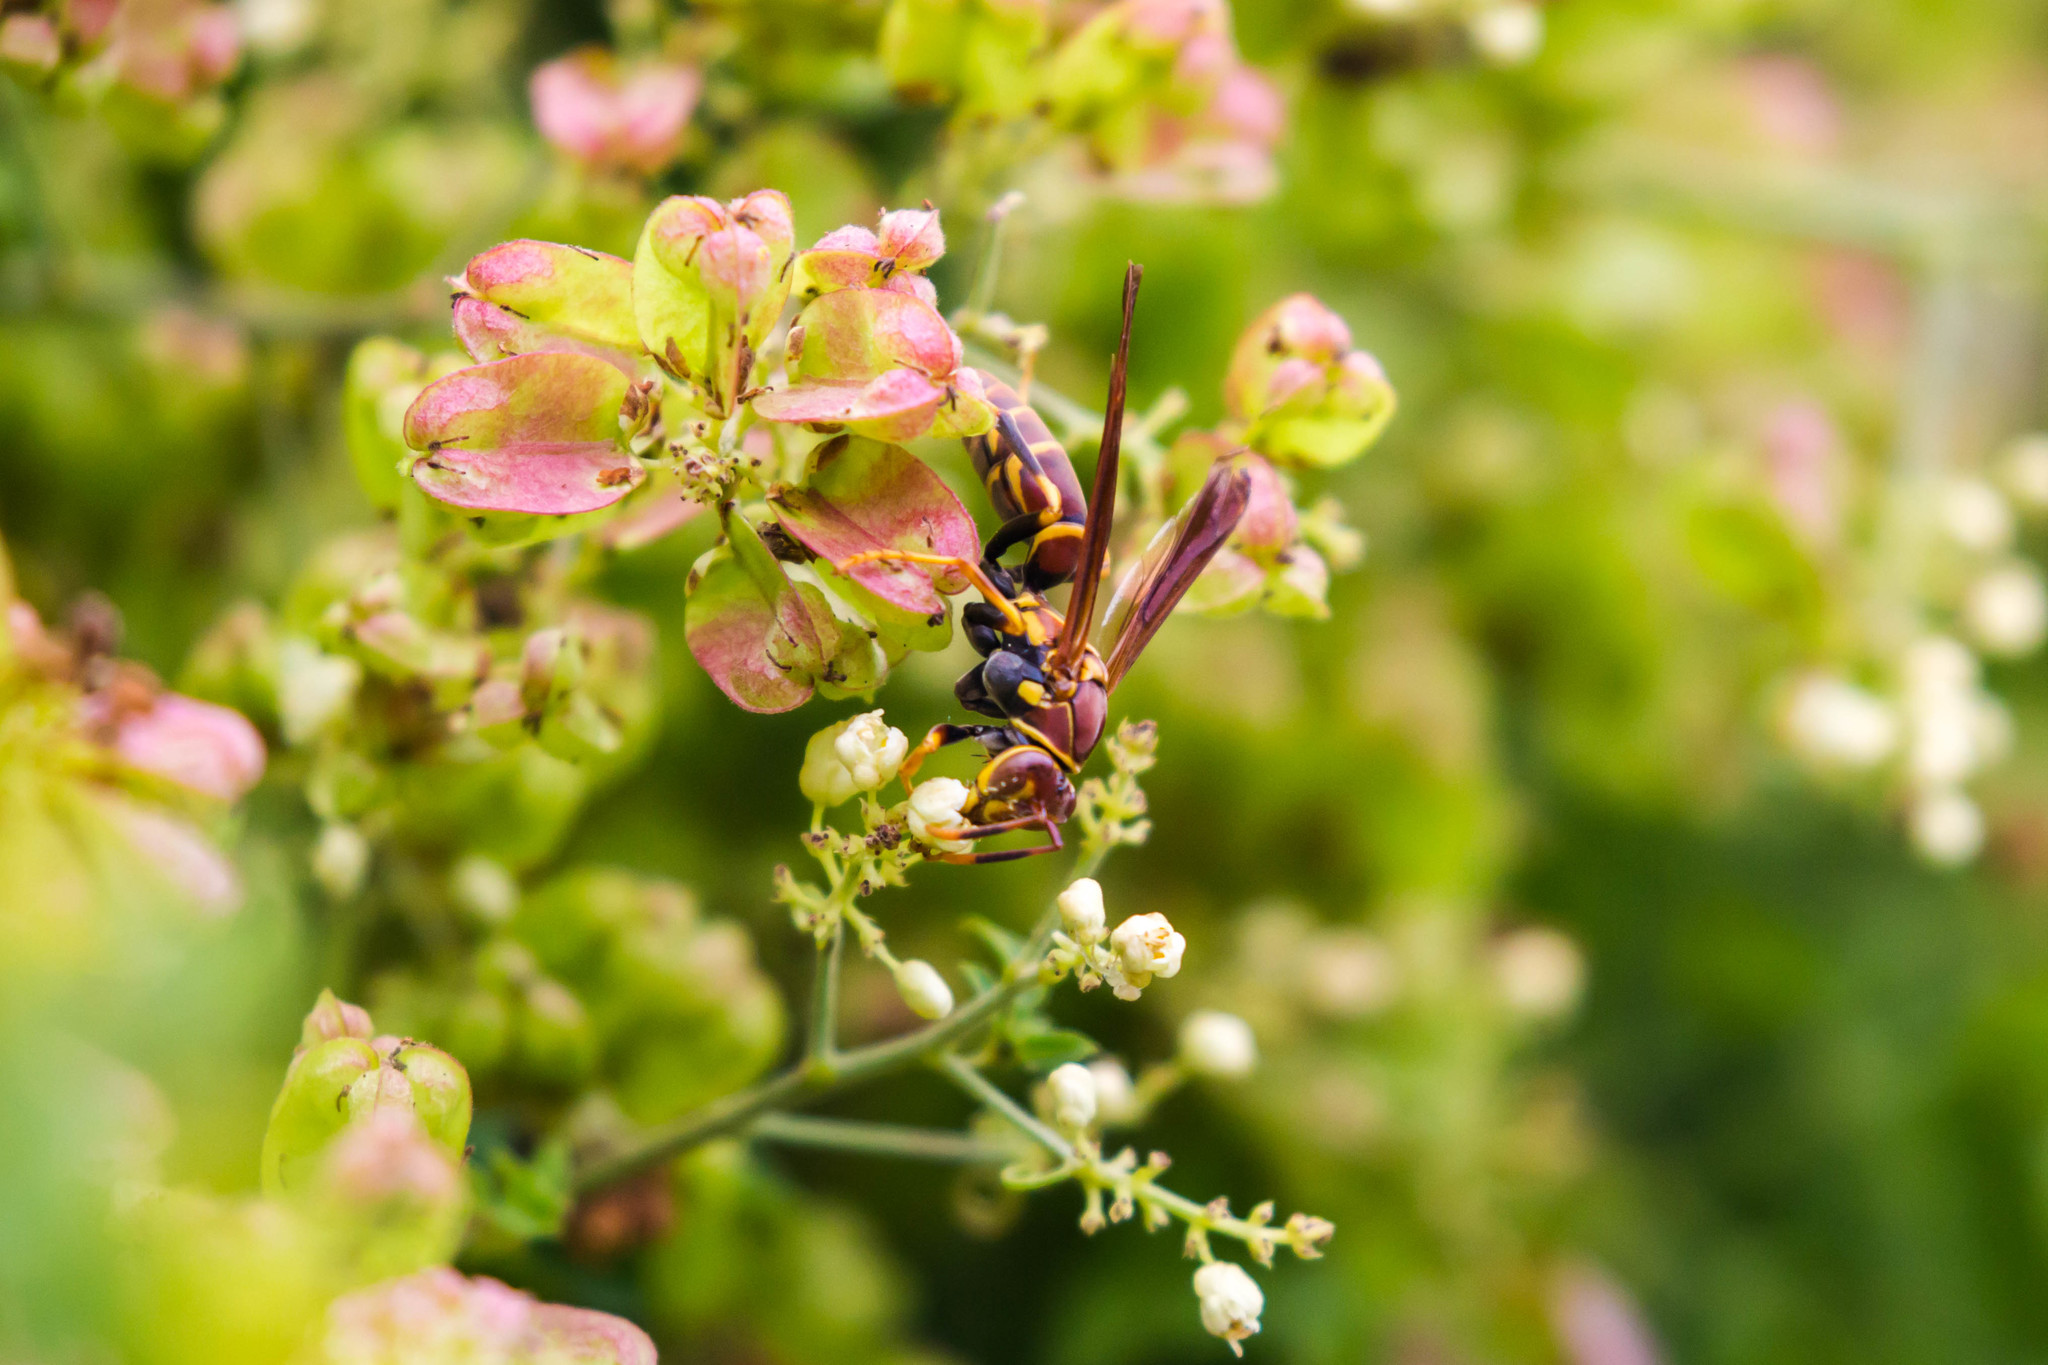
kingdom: Animalia
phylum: Arthropoda
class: Insecta
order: Hymenoptera
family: Eumenidae
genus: Polistes
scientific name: Polistes instabilis
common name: Unstable paper wasp
